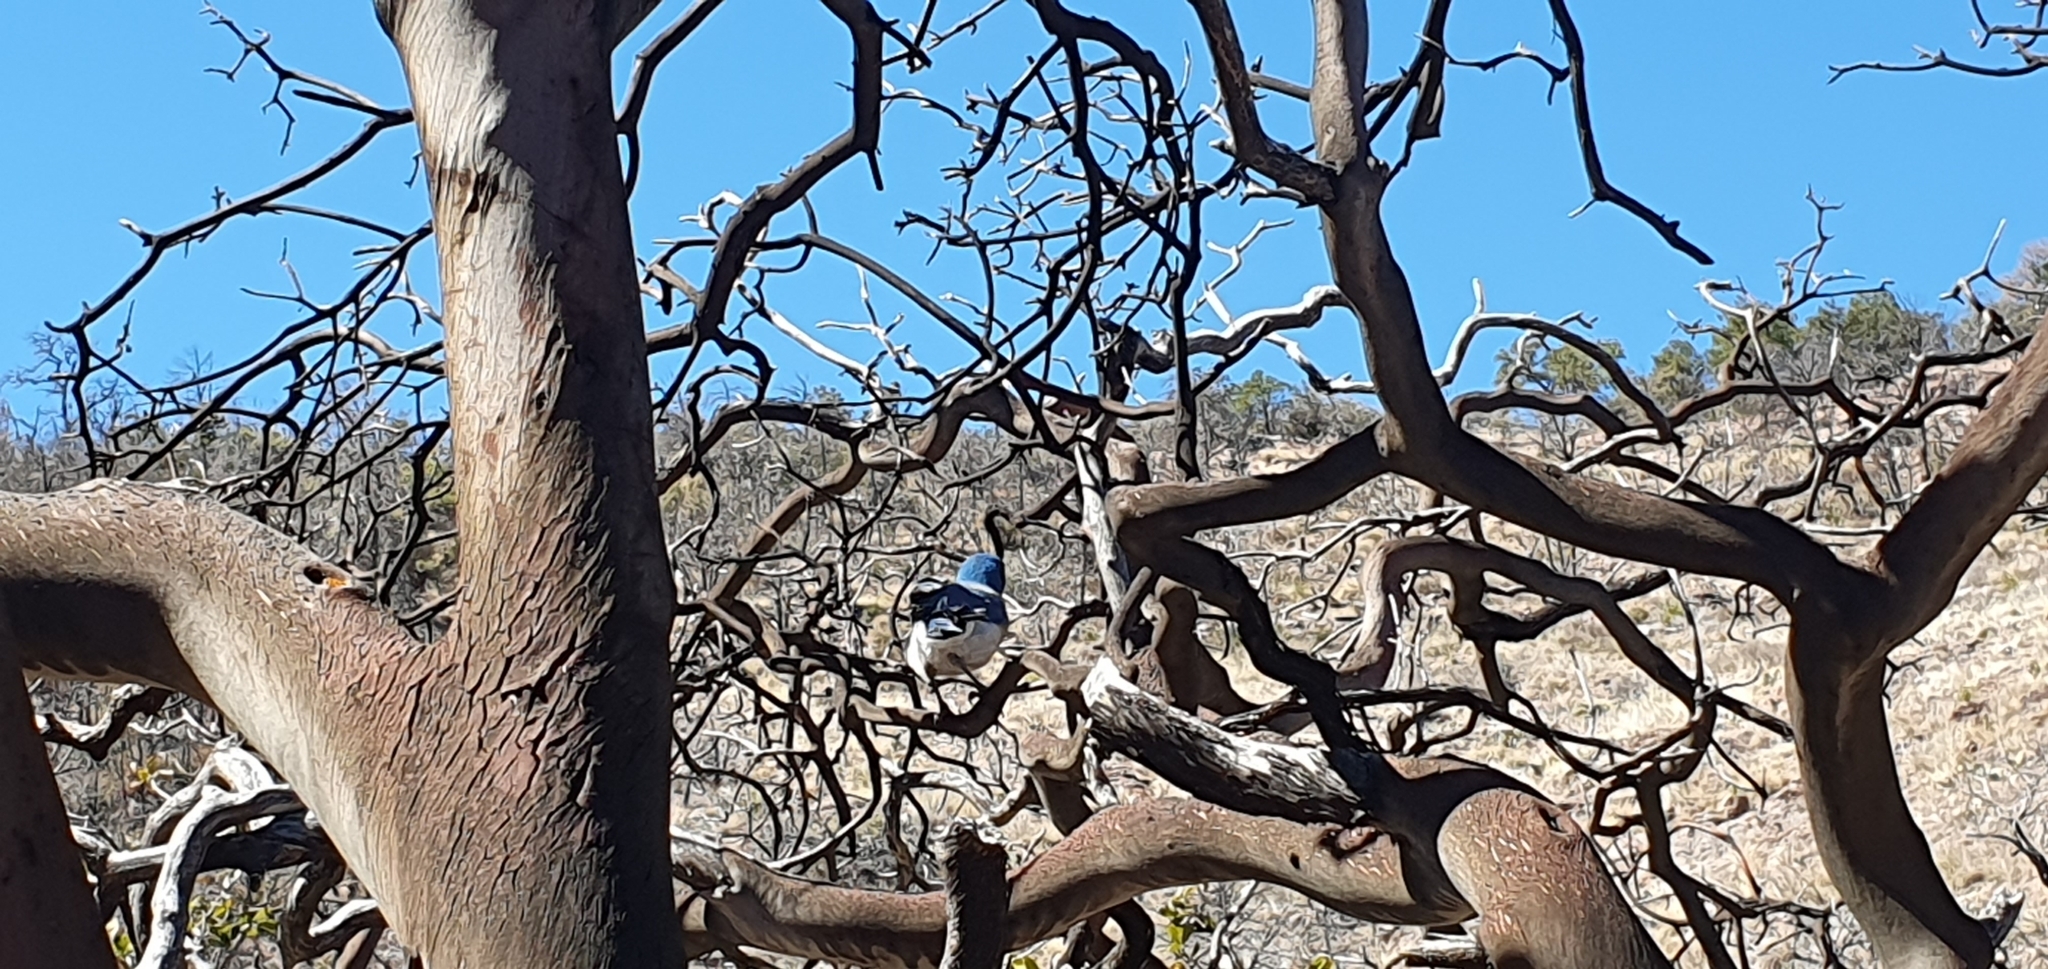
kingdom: Animalia
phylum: Chordata
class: Aves
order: Passeriformes
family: Corvidae
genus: Aphelocoma
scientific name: Aphelocoma wollweberi
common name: Mexican jay
